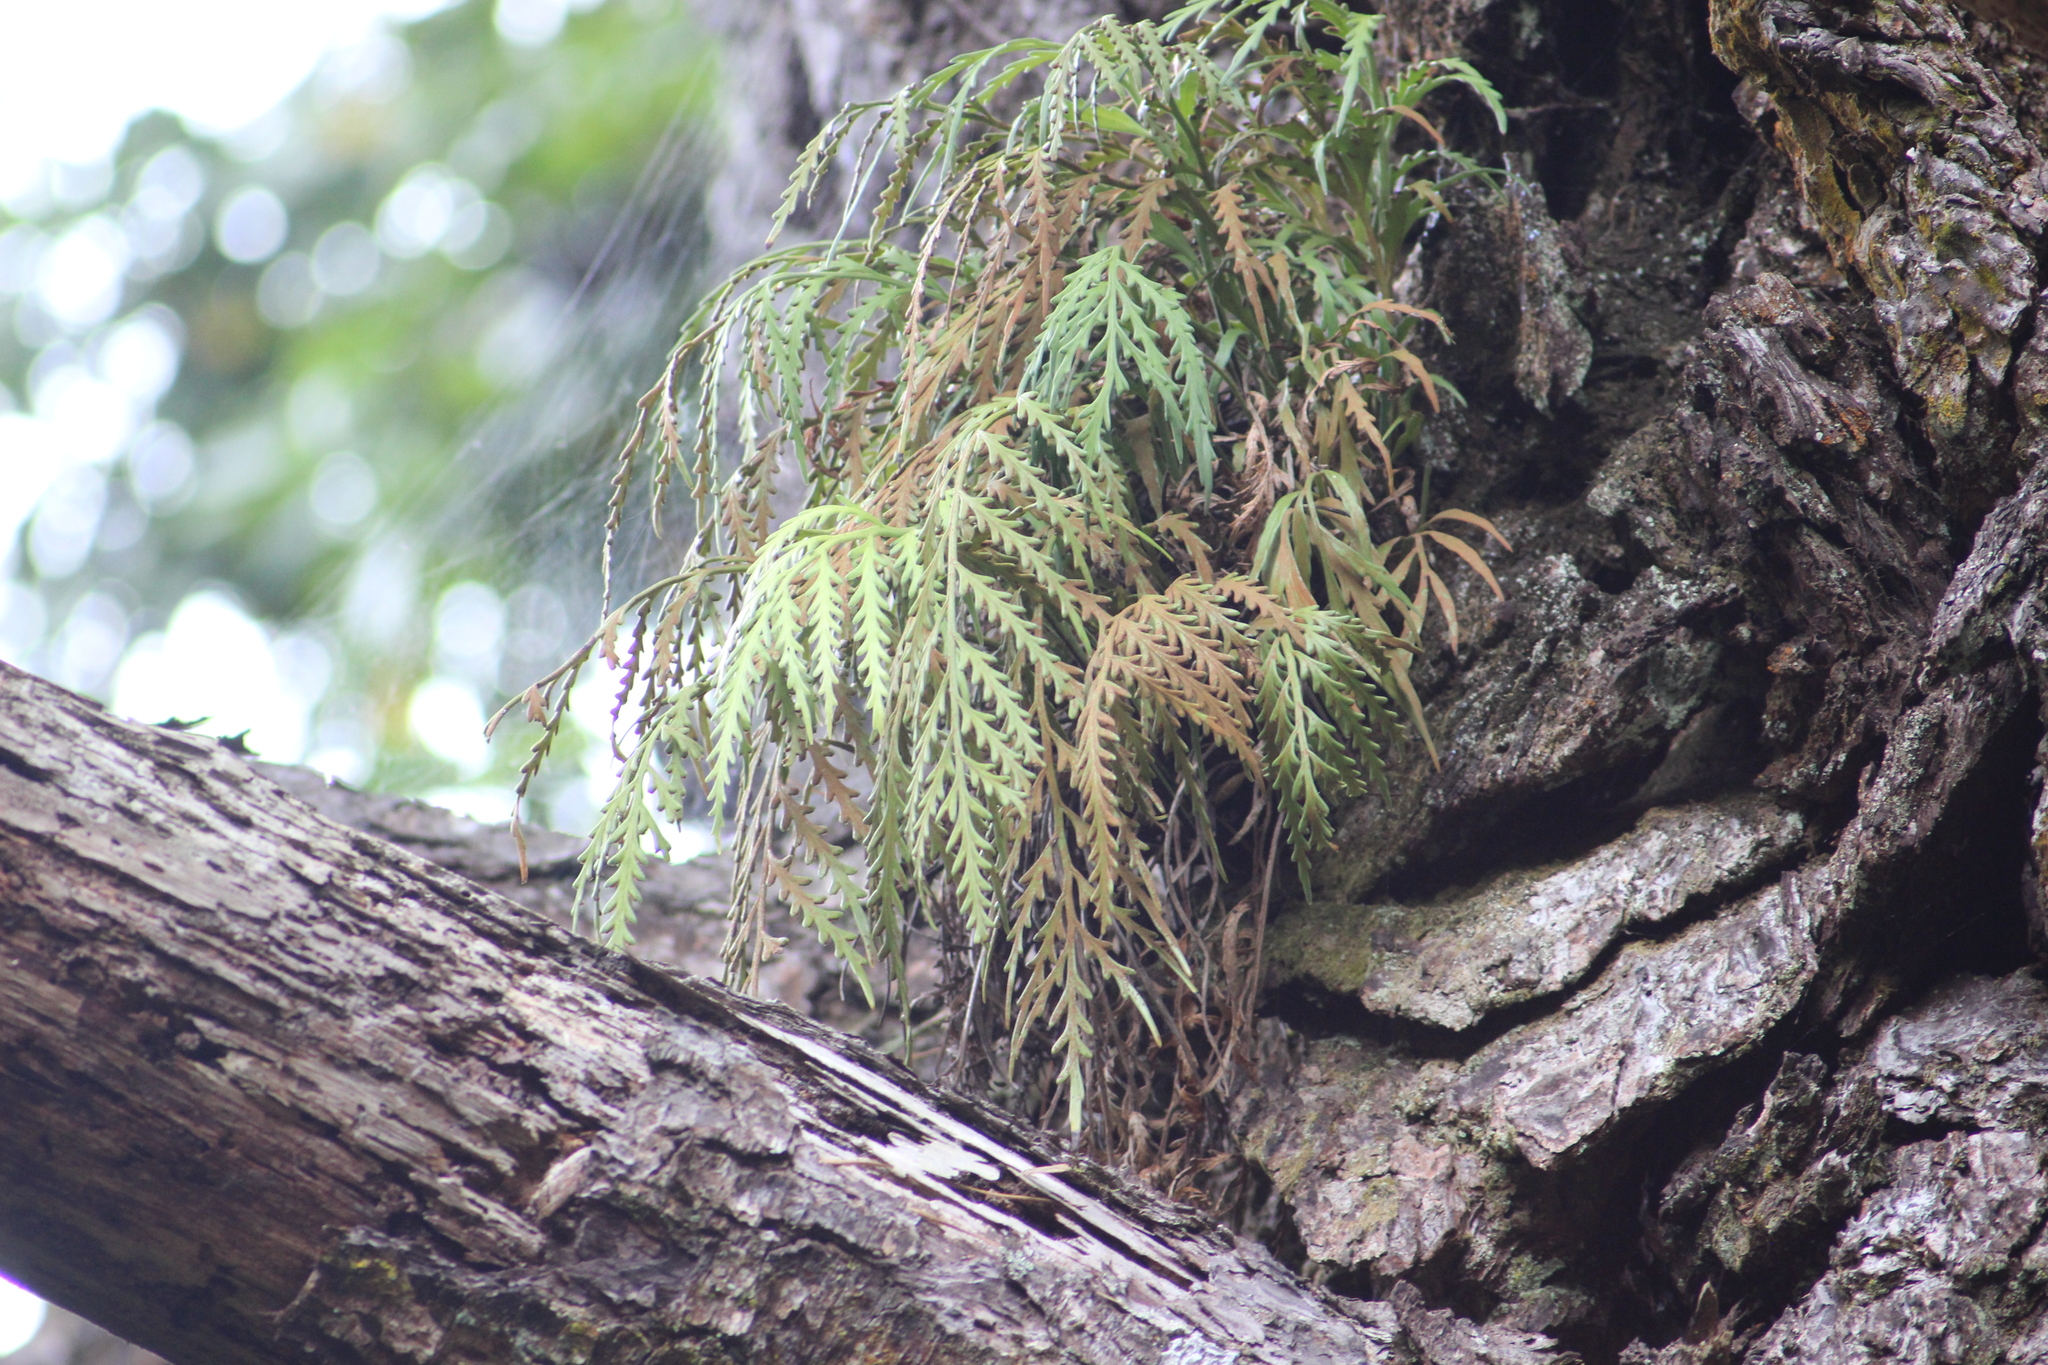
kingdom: Plantae
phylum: Tracheophyta
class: Polypodiopsida
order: Polypodiales
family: Aspleniaceae
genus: Asplenium
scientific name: Asplenium flaccidum
